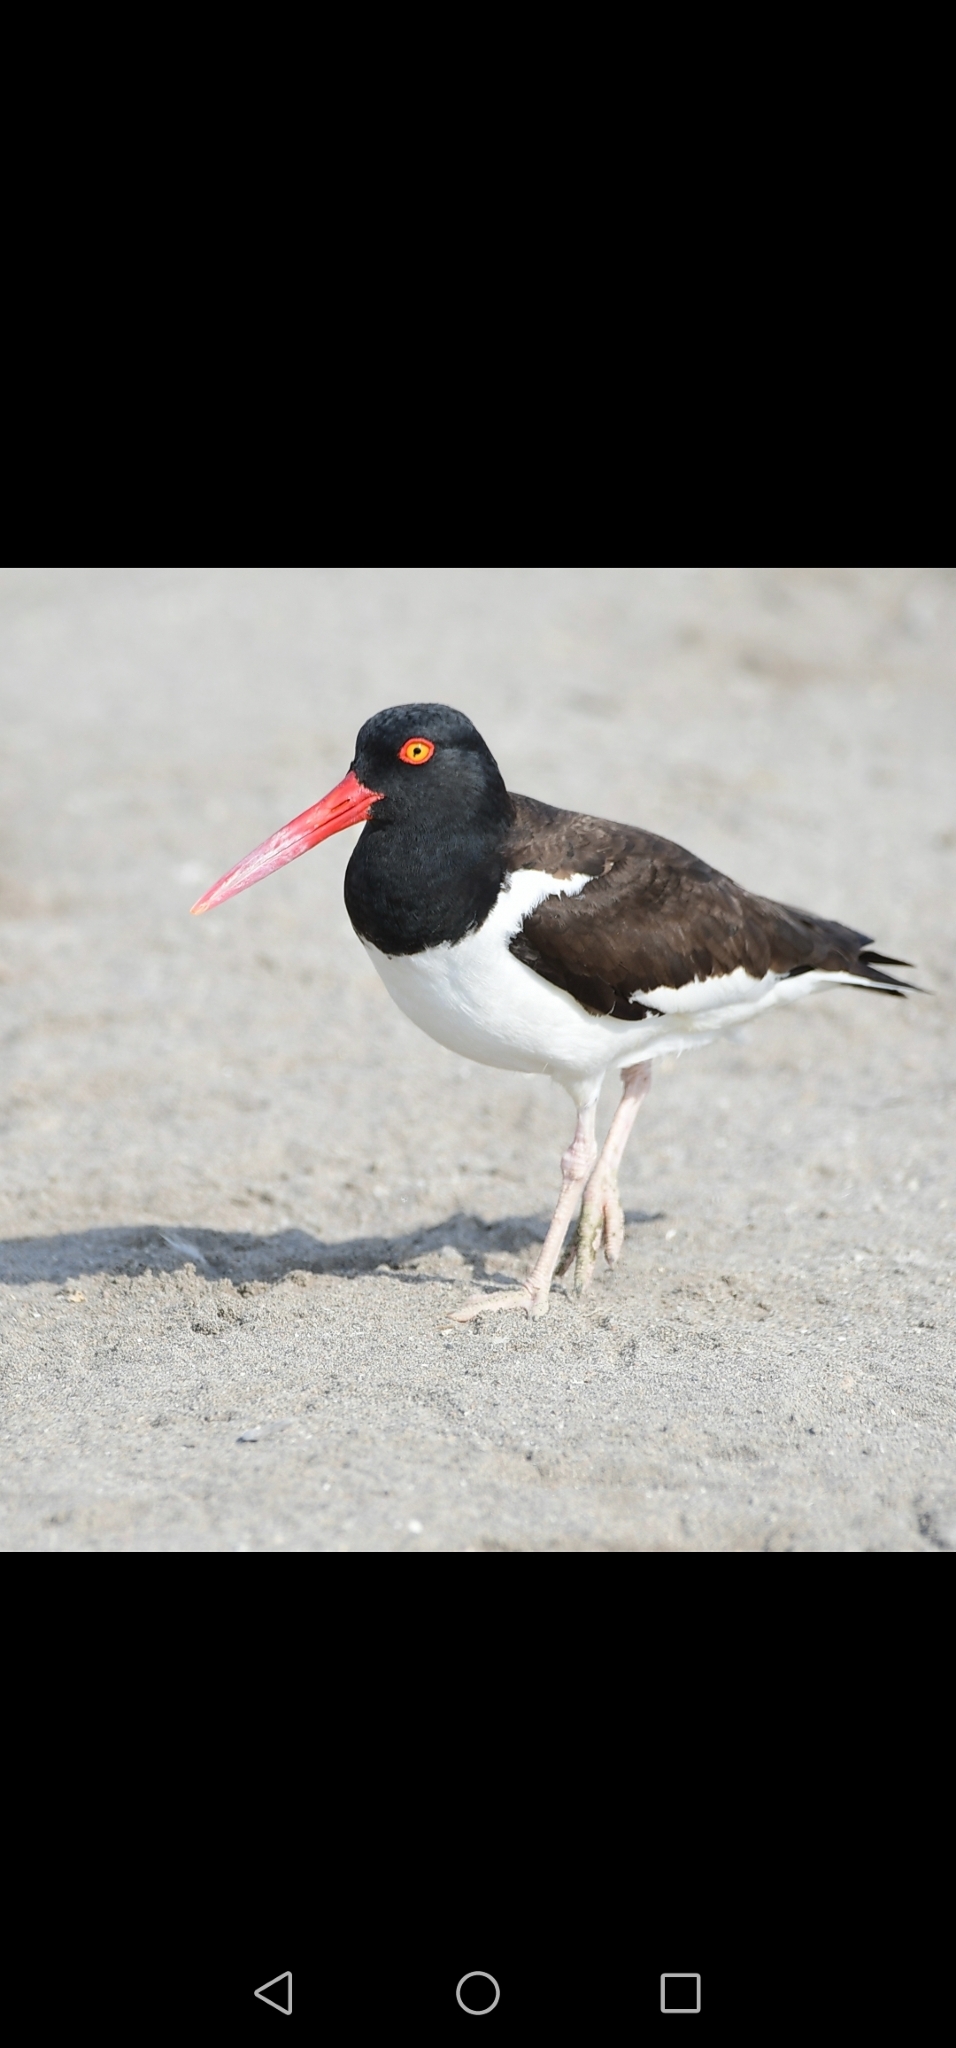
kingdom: Animalia
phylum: Chordata
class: Aves
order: Charadriiformes
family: Haematopodidae
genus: Haematopus
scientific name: Haematopus palliatus
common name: American oystercatcher
